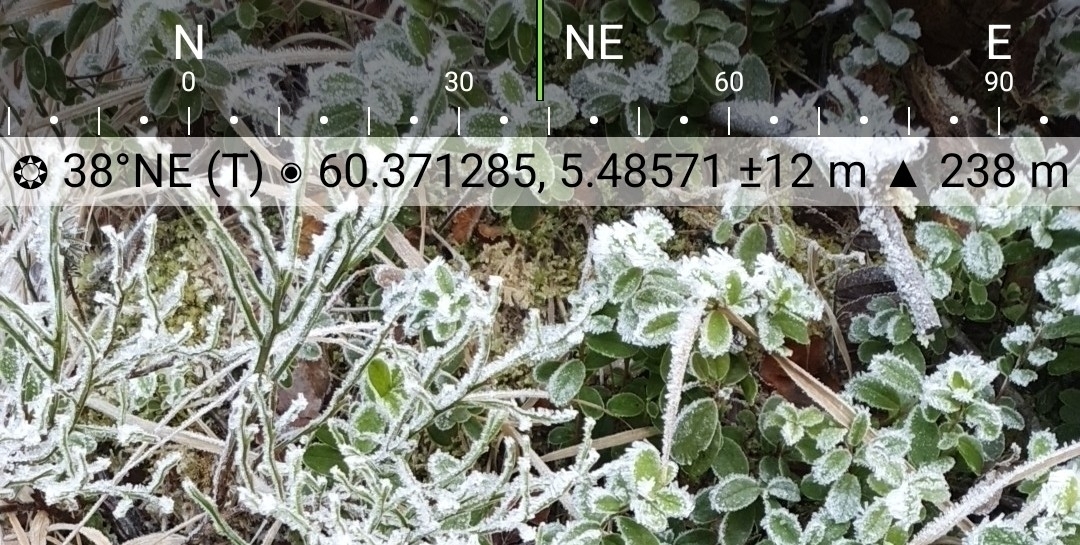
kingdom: Plantae
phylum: Tracheophyta
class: Magnoliopsida
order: Ericales
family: Ericaceae
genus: Vaccinium
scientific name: Vaccinium myrtillus
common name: Bilberry
